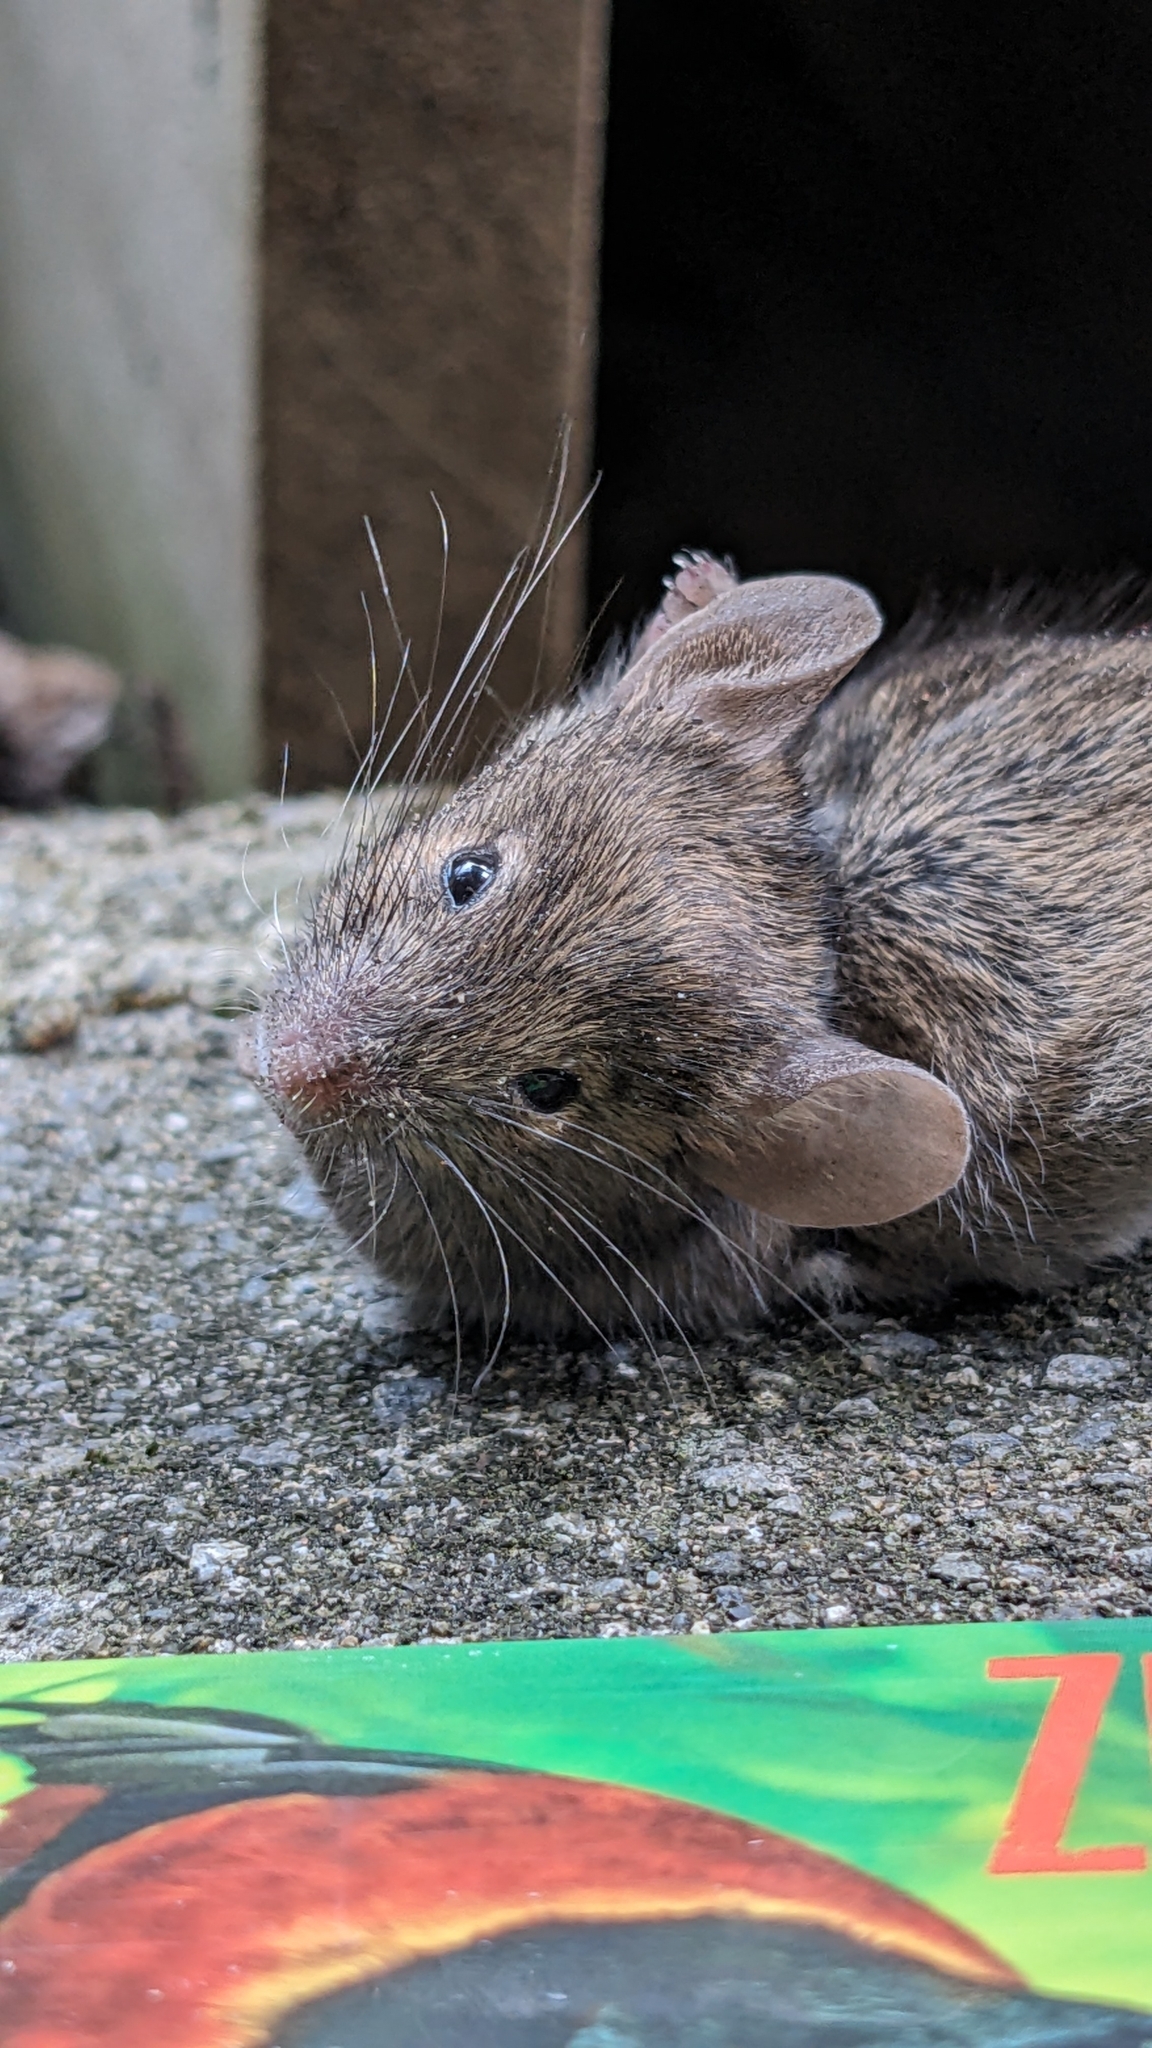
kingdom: Animalia
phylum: Chordata
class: Mammalia
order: Rodentia
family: Muridae
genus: Mus
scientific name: Mus musculus
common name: House mouse
